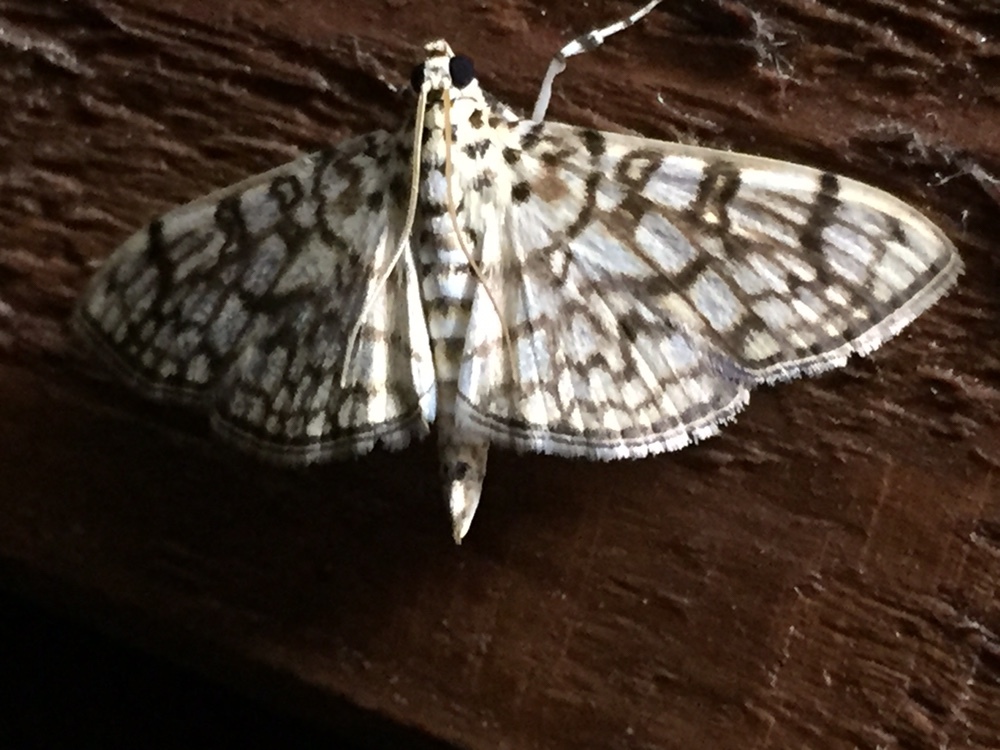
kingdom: Animalia
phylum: Arthropoda
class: Insecta
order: Lepidoptera
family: Crambidae
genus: Haritalodes
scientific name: Haritalodes derogata
